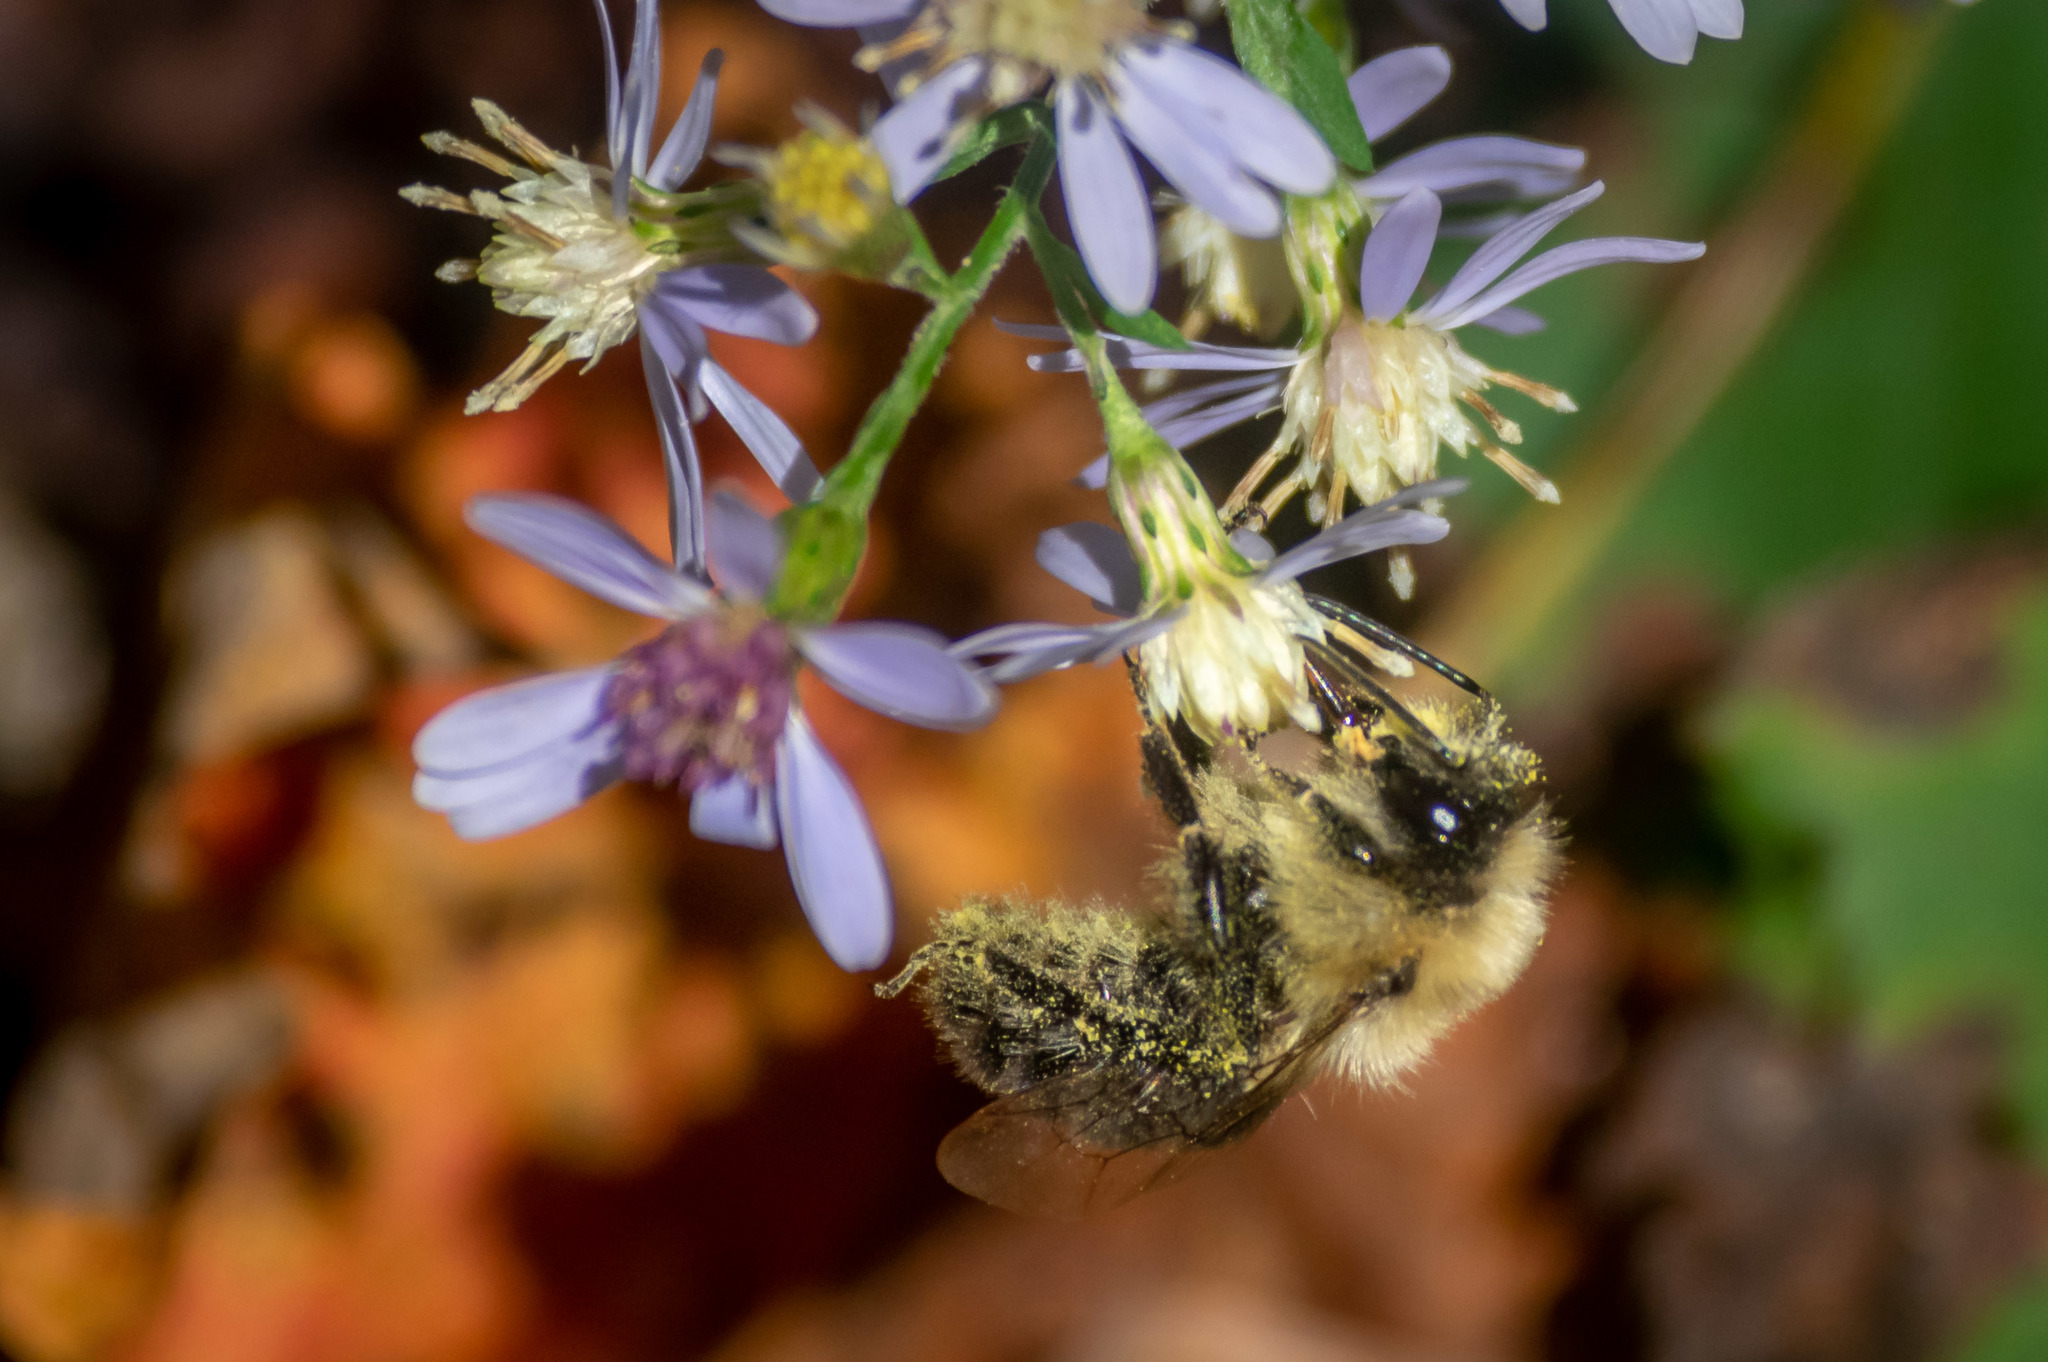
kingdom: Animalia
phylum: Arthropoda
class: Insecta
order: Hymenoptera
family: Apidae
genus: Bombus
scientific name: Bombus impatiens
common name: Common eastern bumble bee
